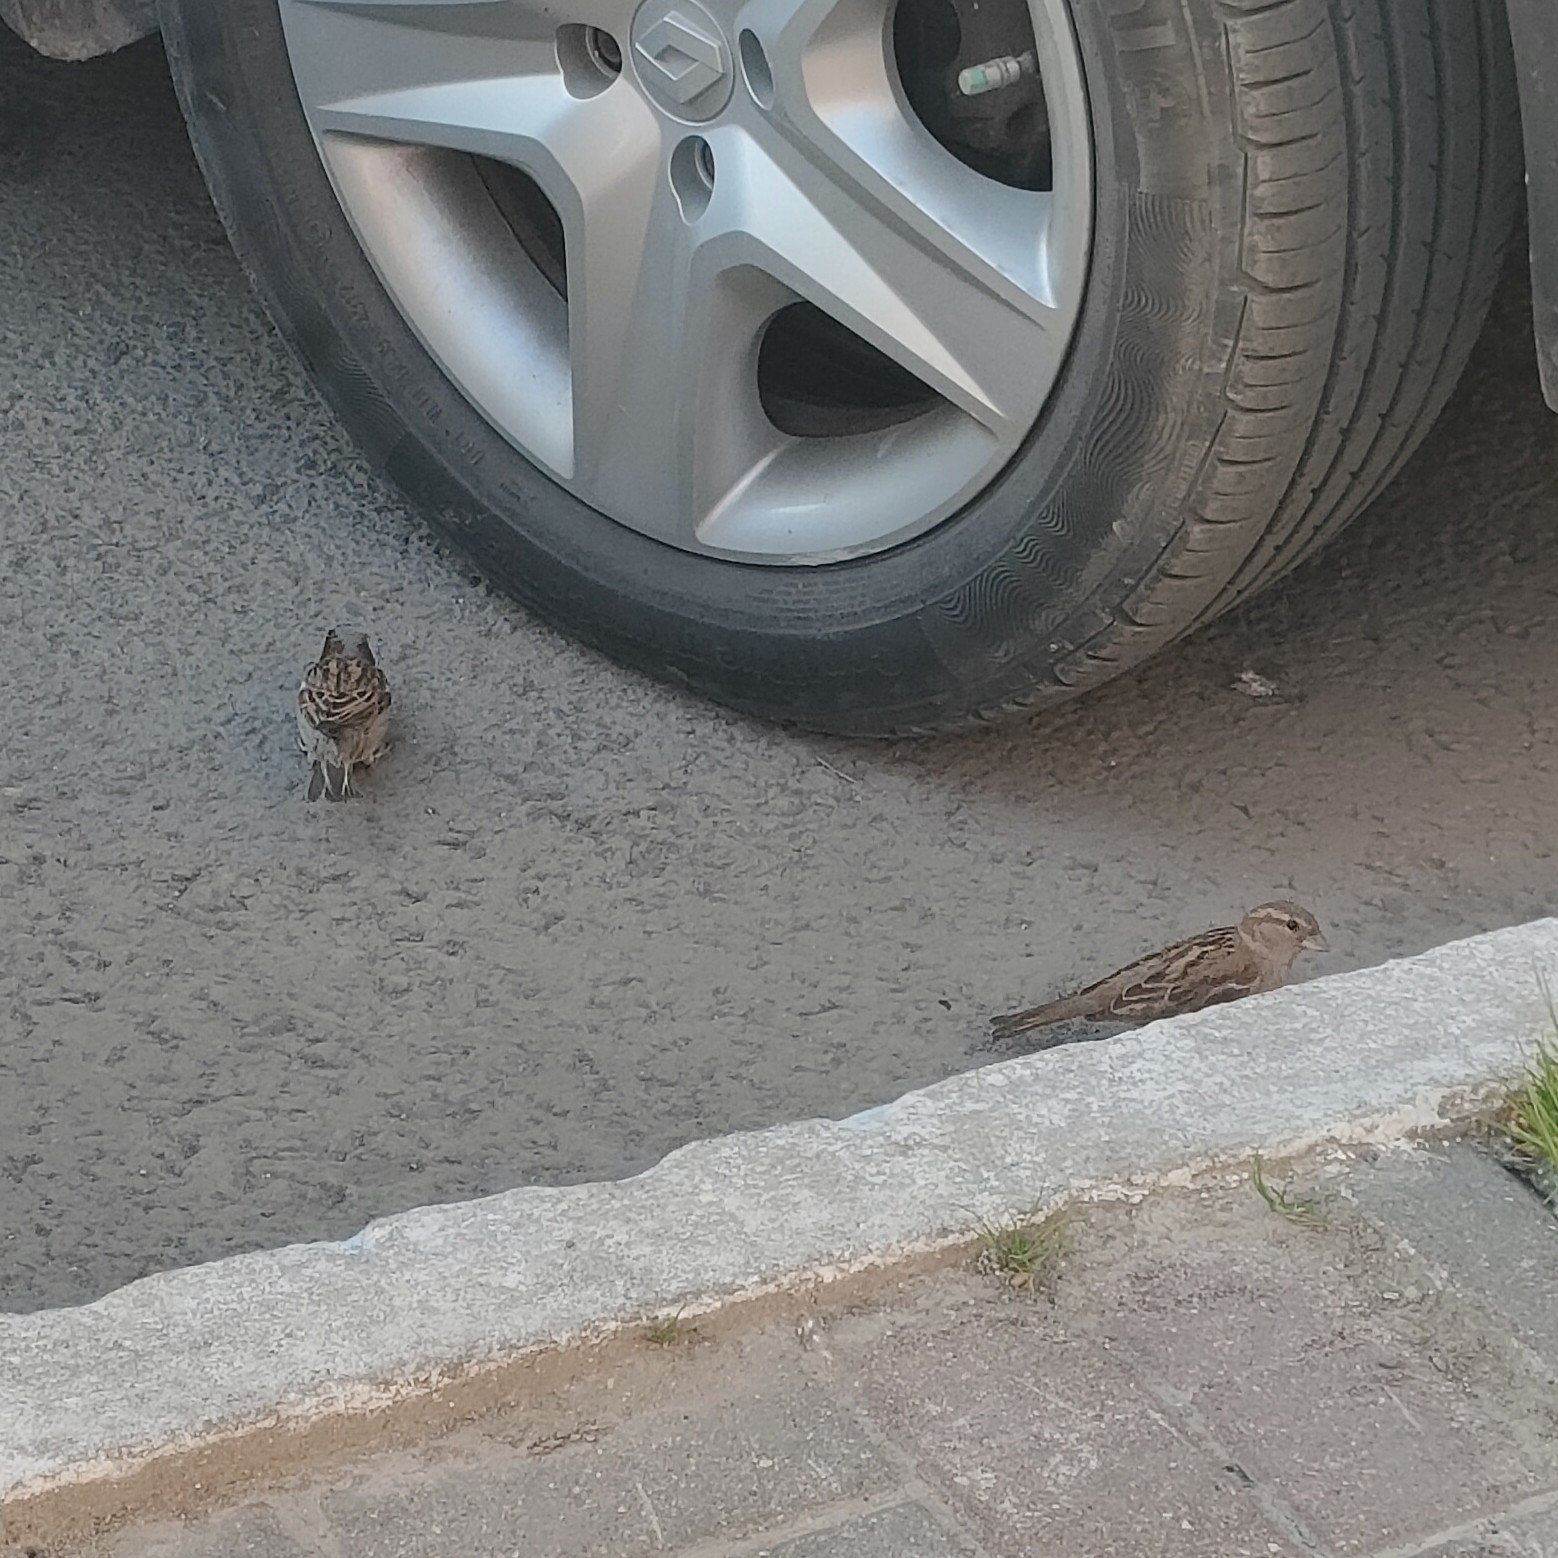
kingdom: Animalia
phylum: Chordata
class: Aves
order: Passeriformes
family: Passeridae
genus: Passer
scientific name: Passer domesticus
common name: House sparrow
